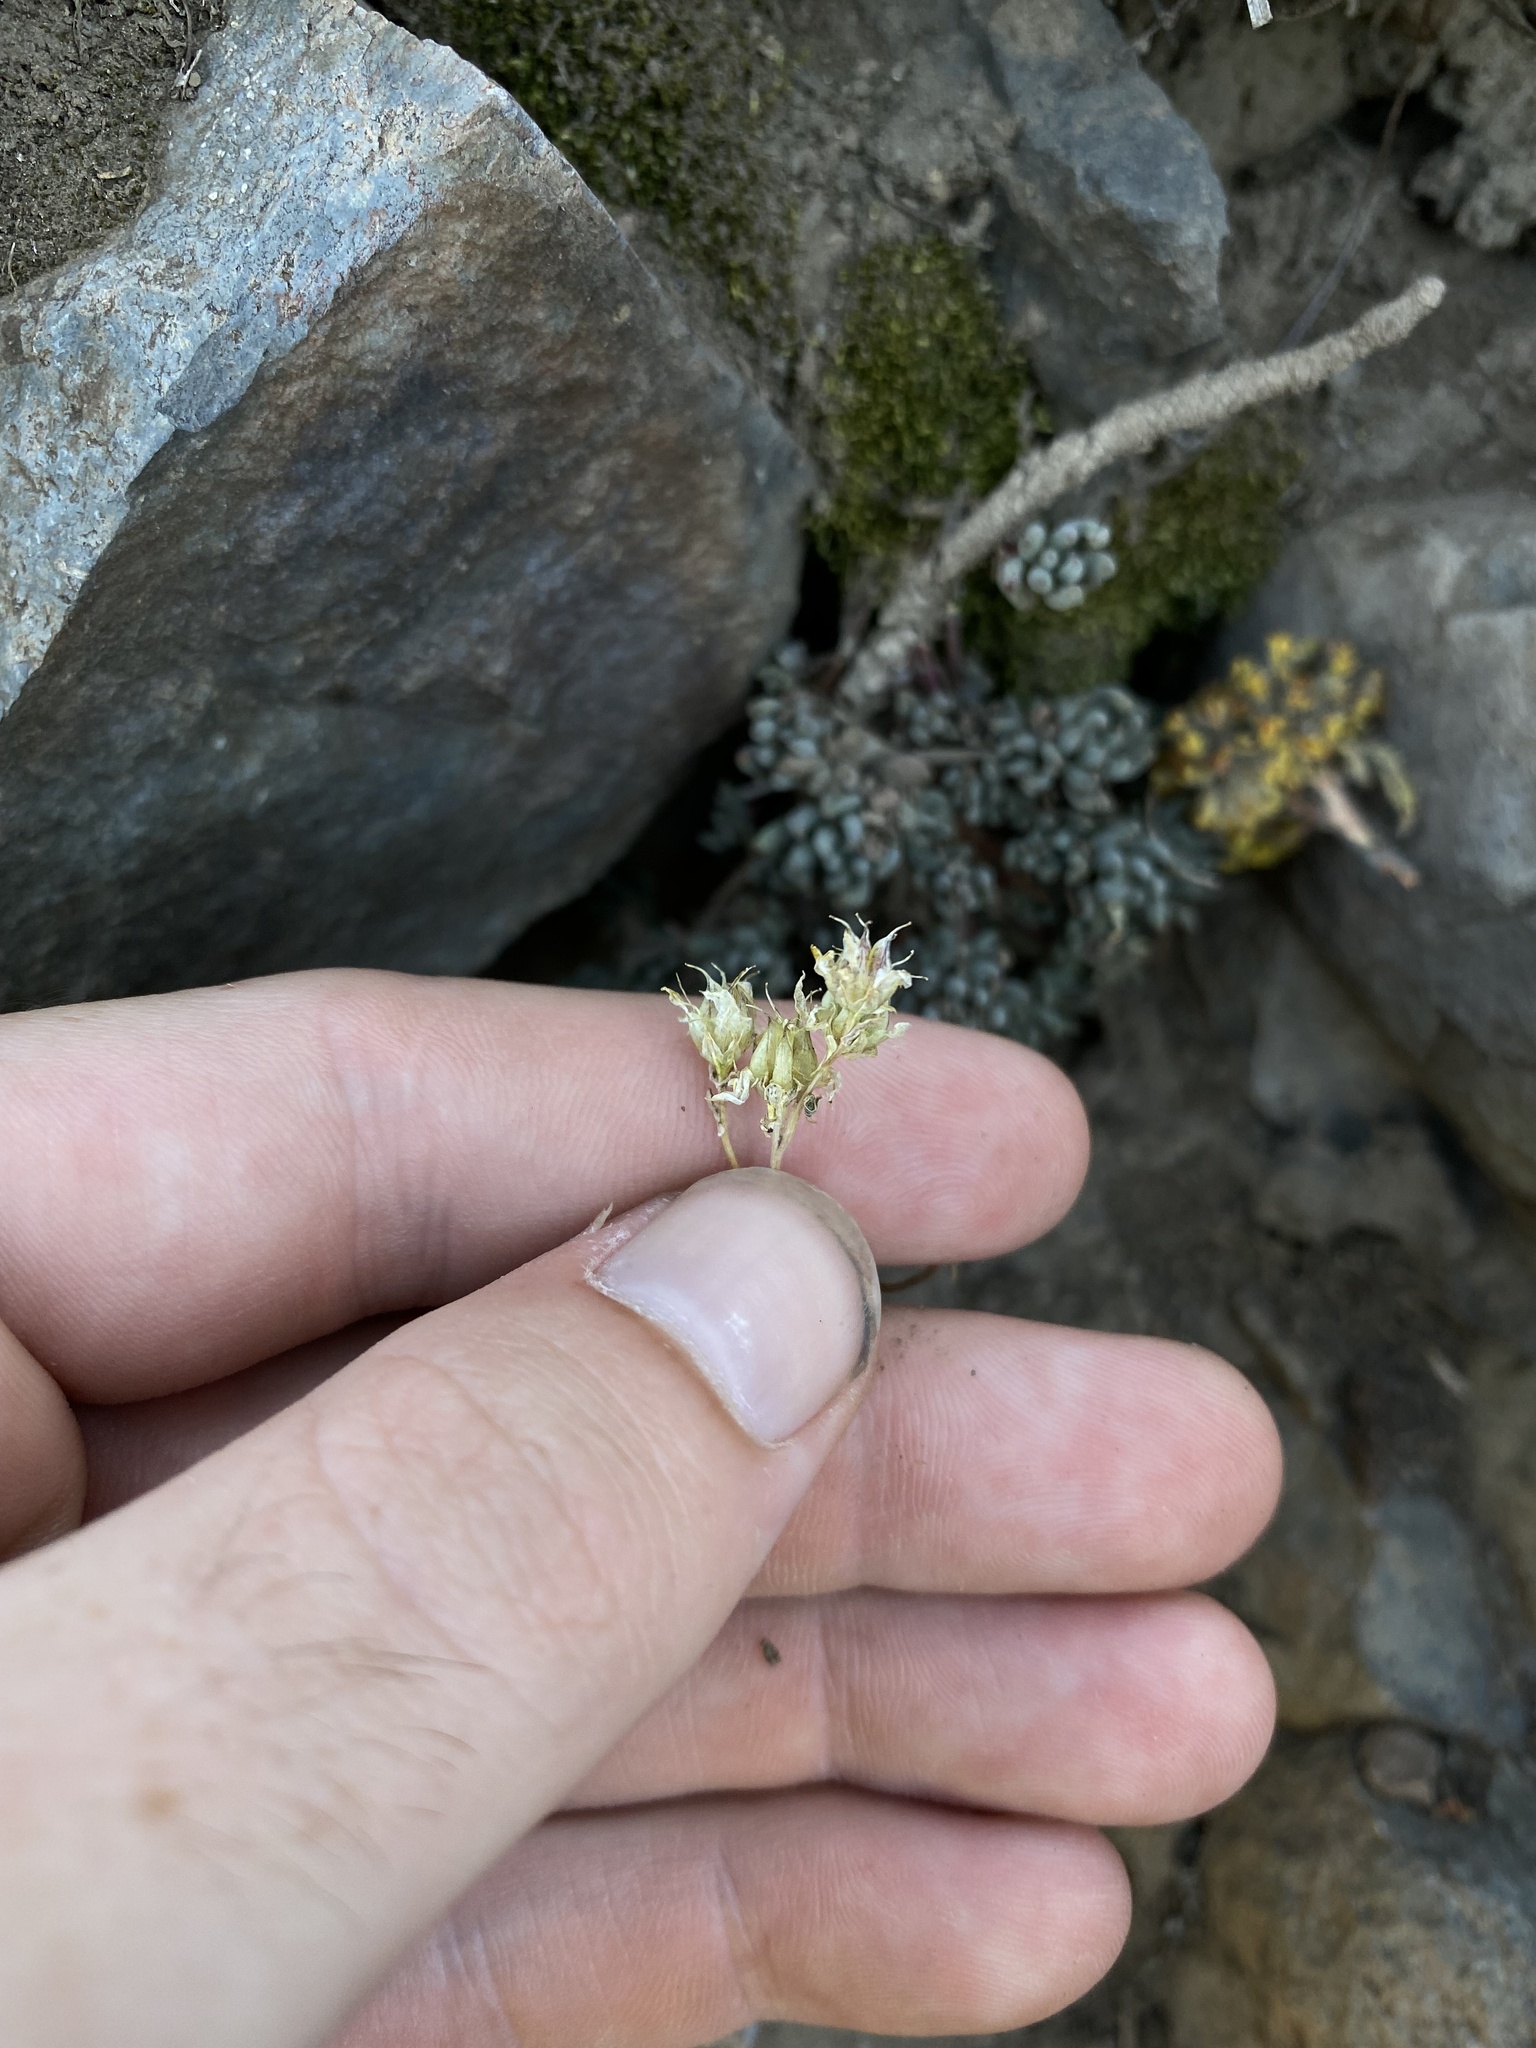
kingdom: Plantae
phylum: Tracheophyta
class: Magnoliopsida
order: Saxifragales
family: Crassulaceae
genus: Sedum
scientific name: Sedum lanceolatum
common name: Common stonecrop
